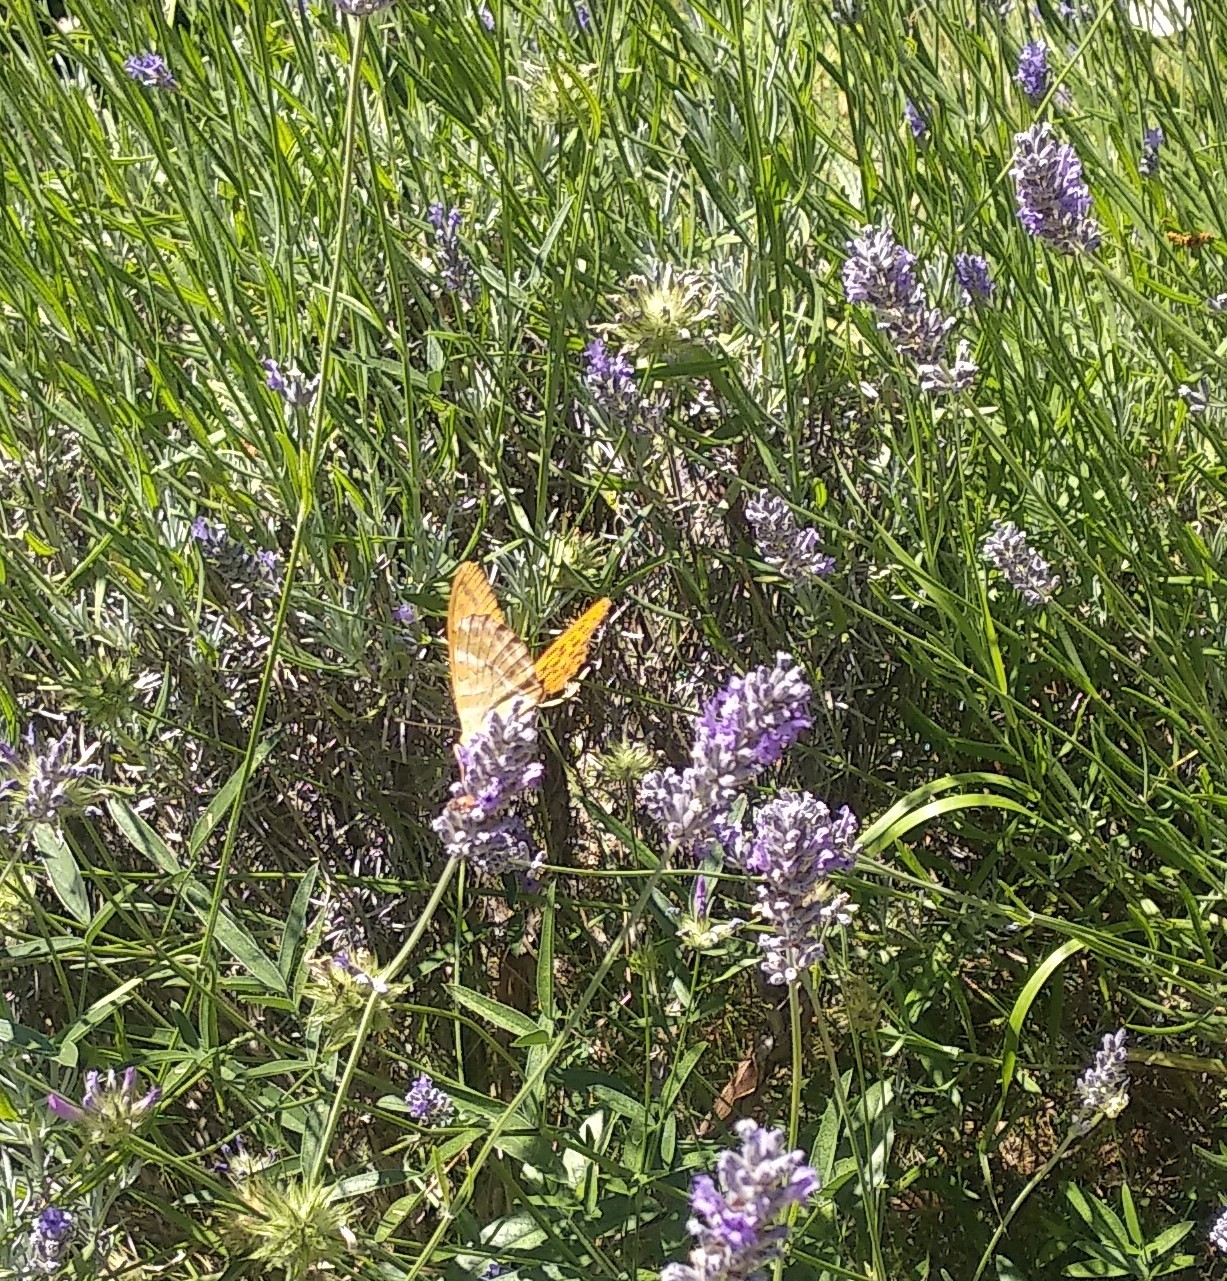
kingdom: Animalia
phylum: Arthropoda
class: Insecta
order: Lepidoptera
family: Nymphalidae
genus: Argynnis
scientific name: Argynnis paphia
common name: Silver-washed fritillary
